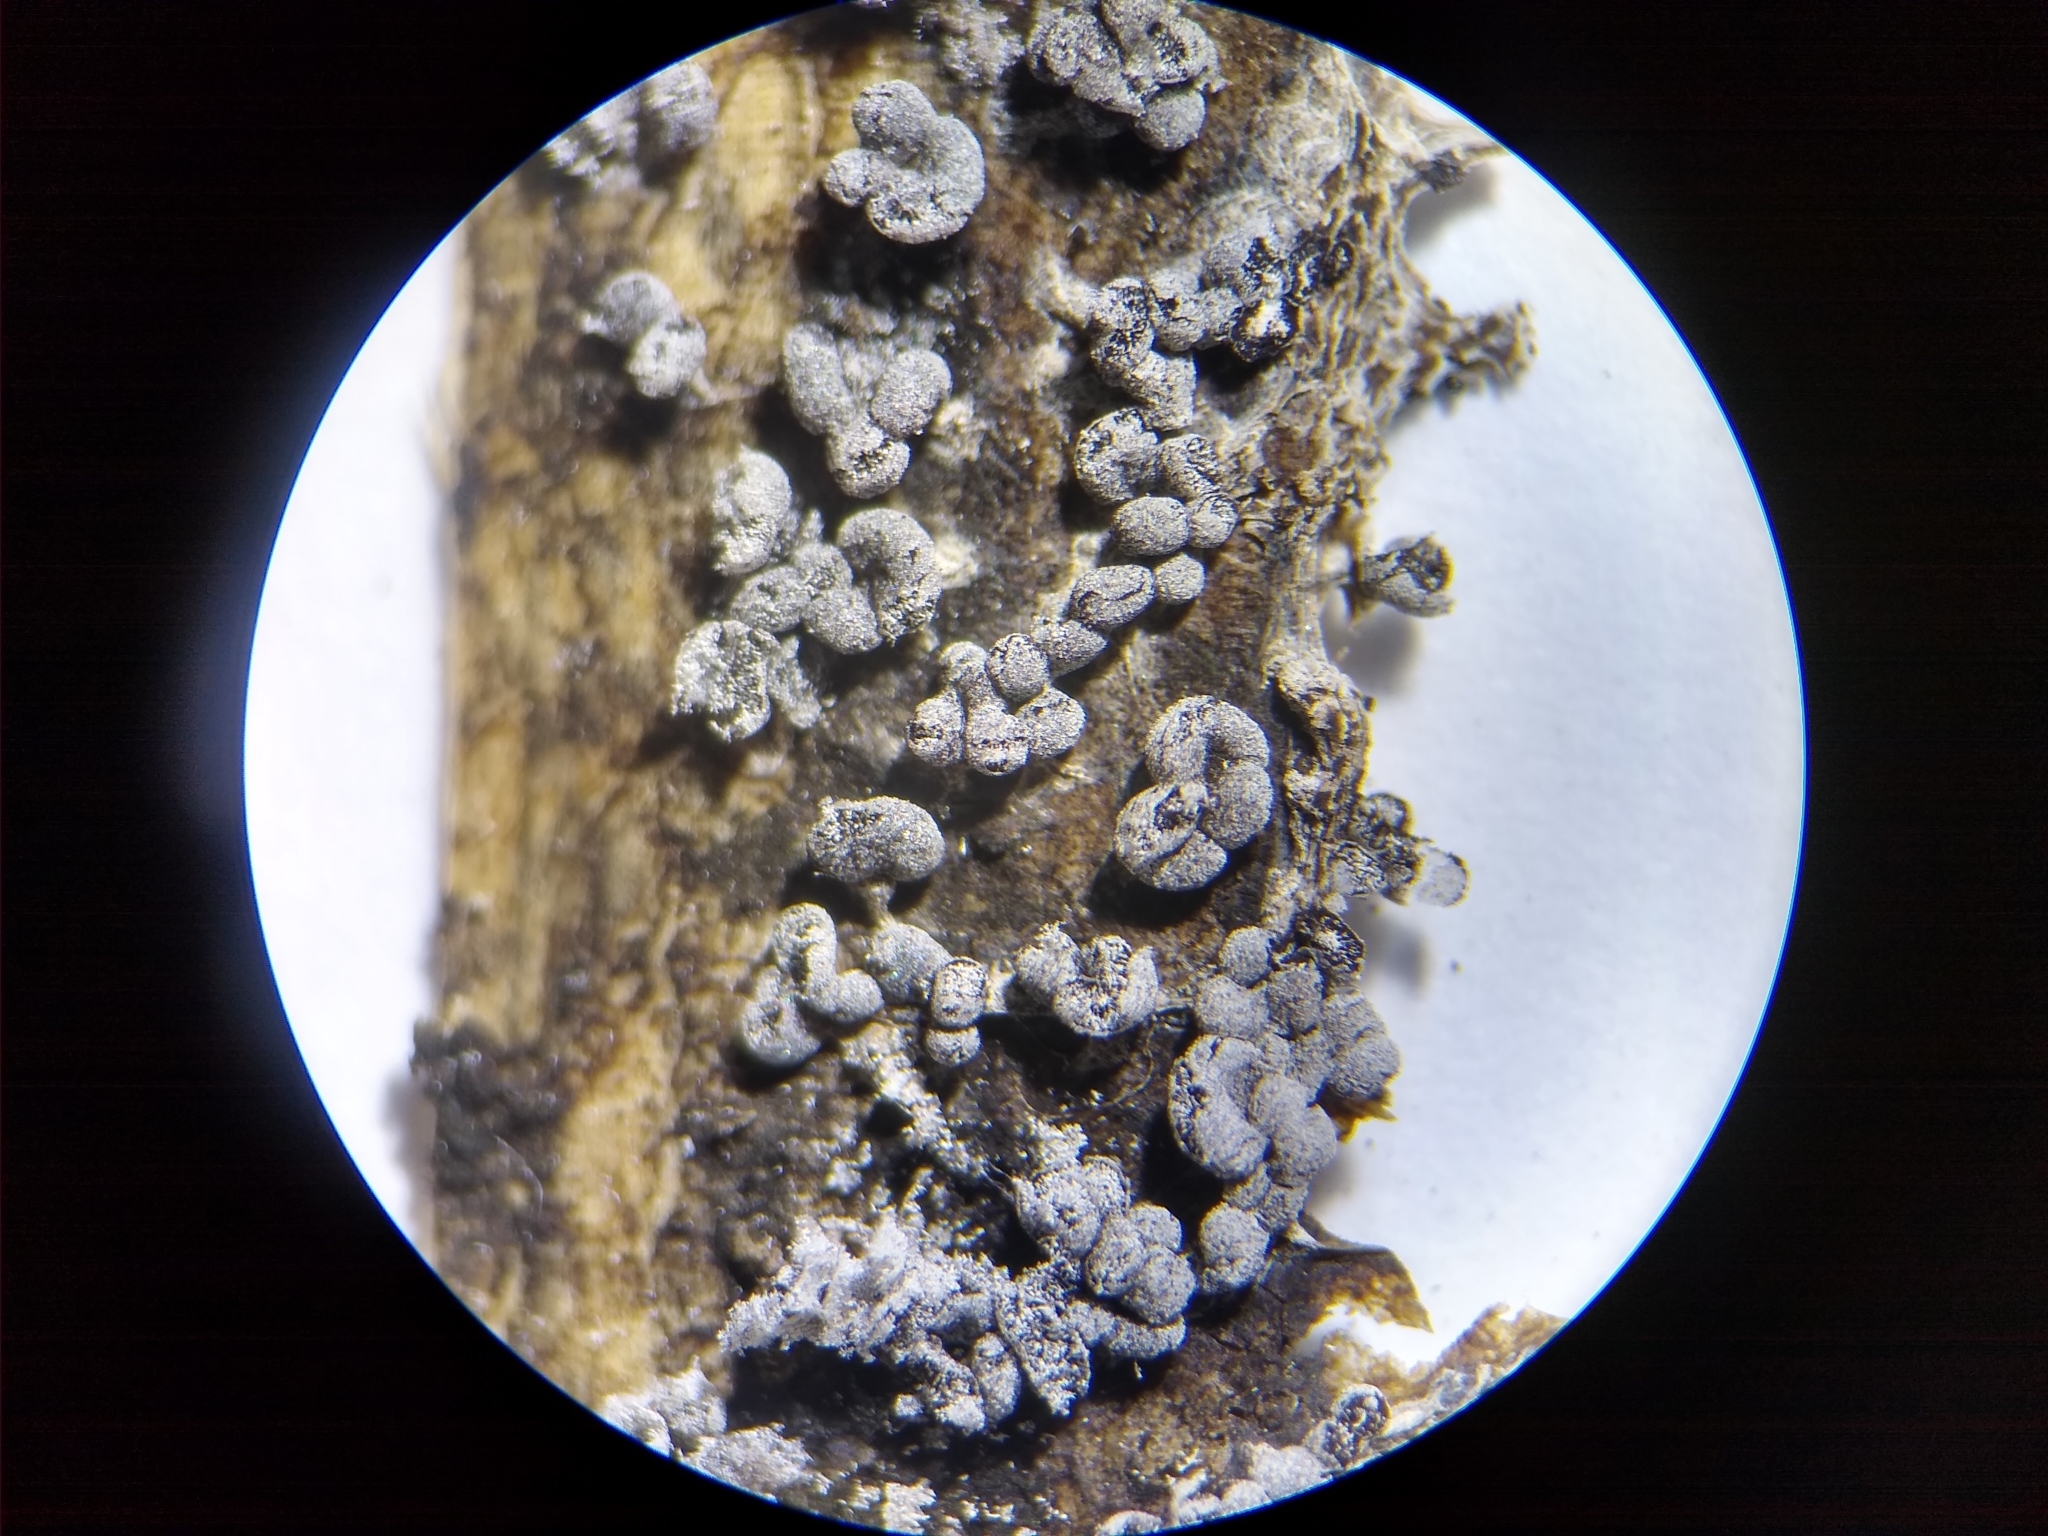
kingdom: Protozoa
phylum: Mycetozoa
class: Myxomycetes
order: Physarales
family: Physaraceae
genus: Physarum
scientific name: Physarum compressum
